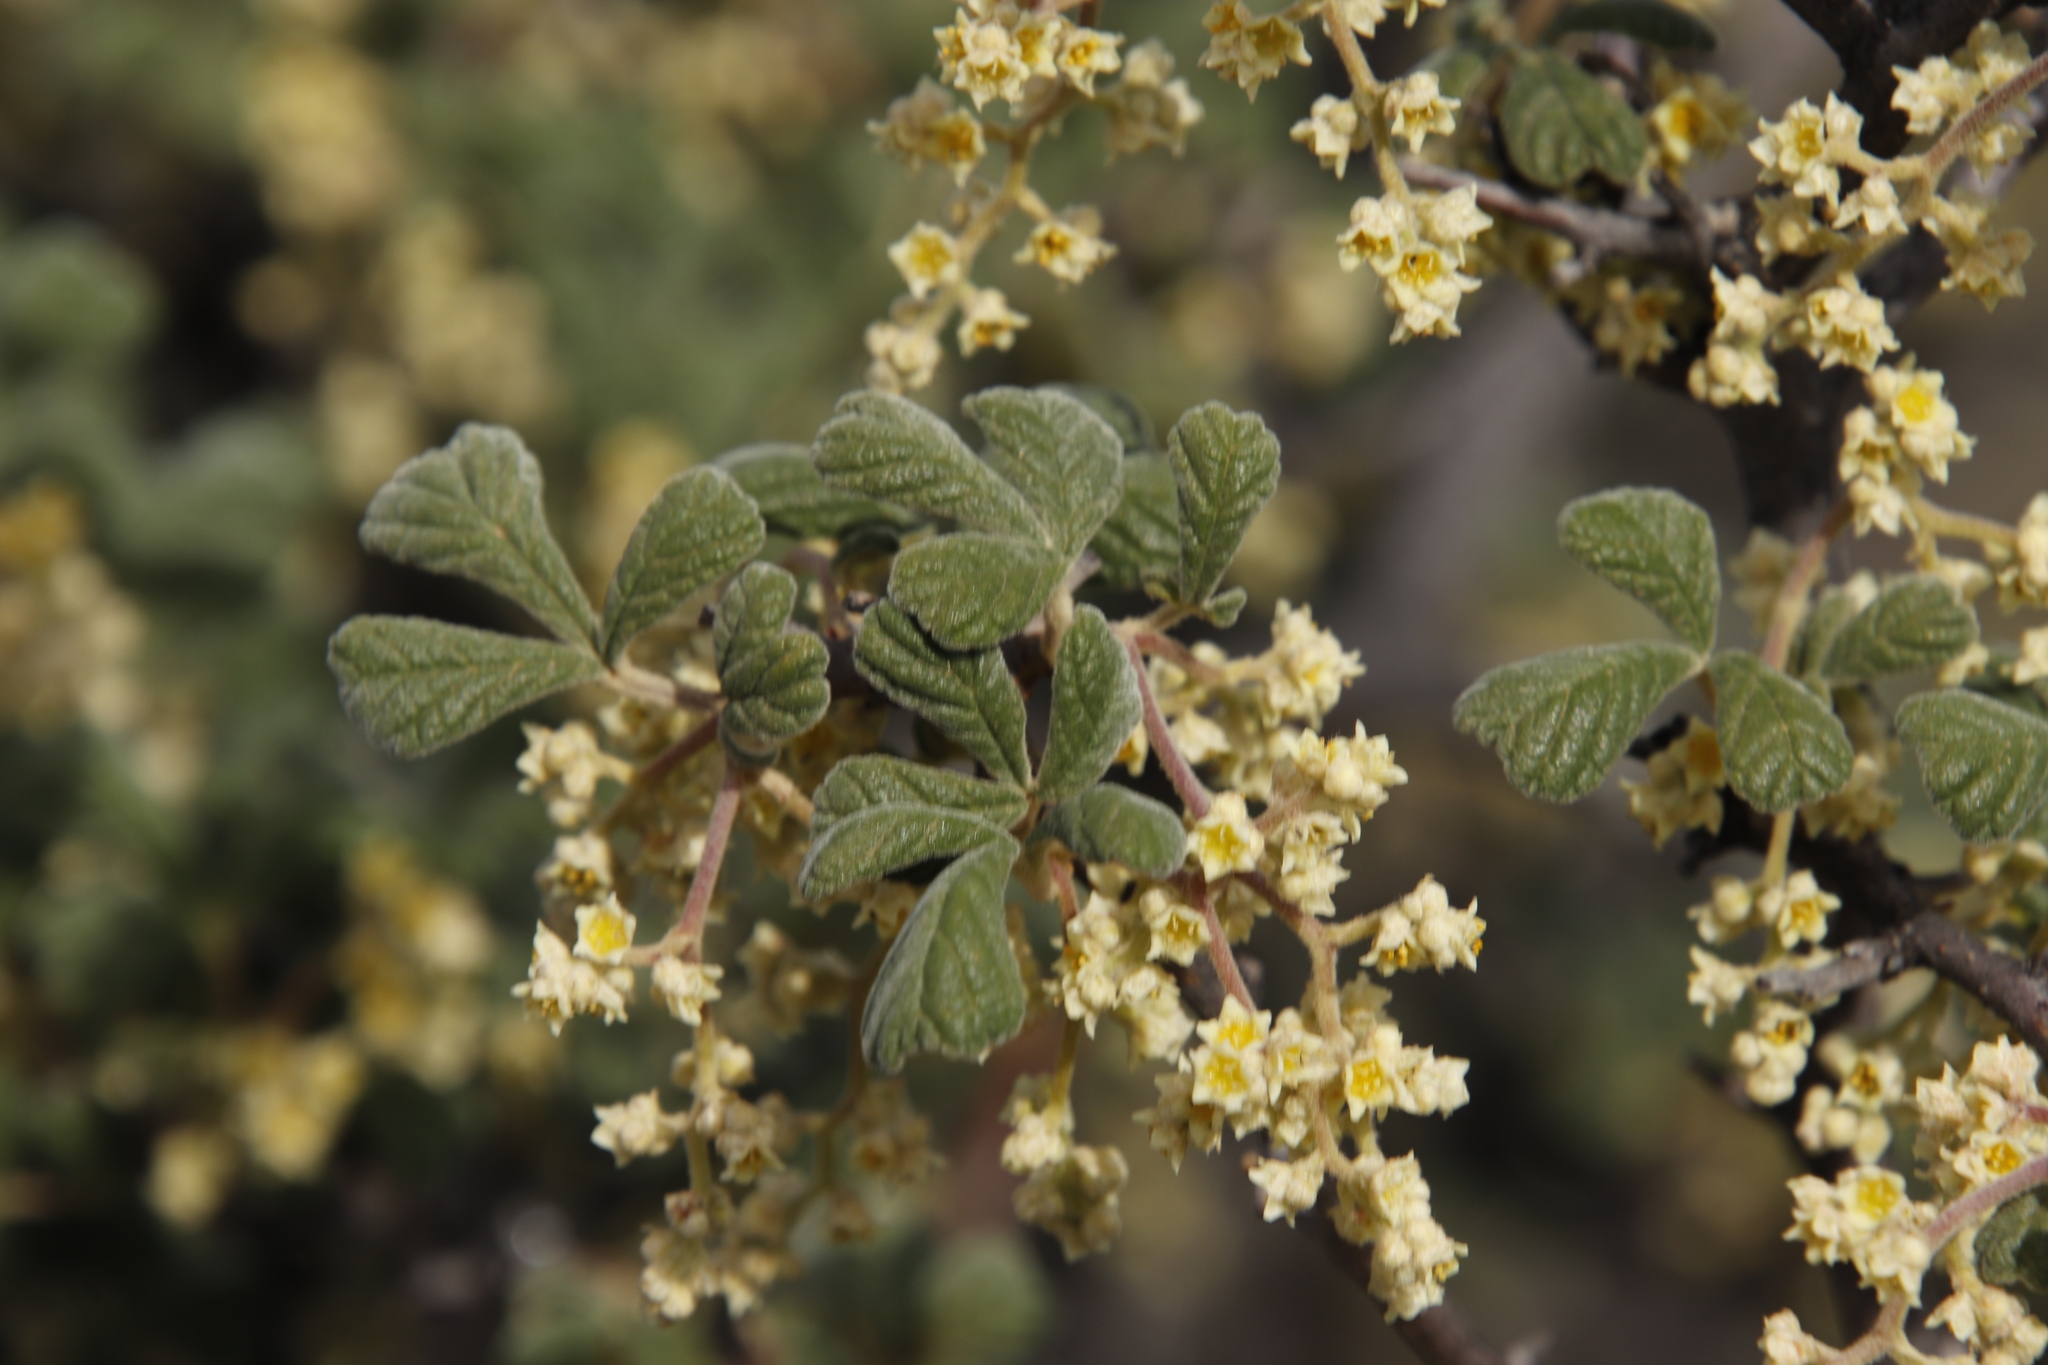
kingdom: Plantae
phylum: Tracheophyta
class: Magnoliopsida
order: Sapindales
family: Anacardiaceae
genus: Searsia
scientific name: Searsia incisa
